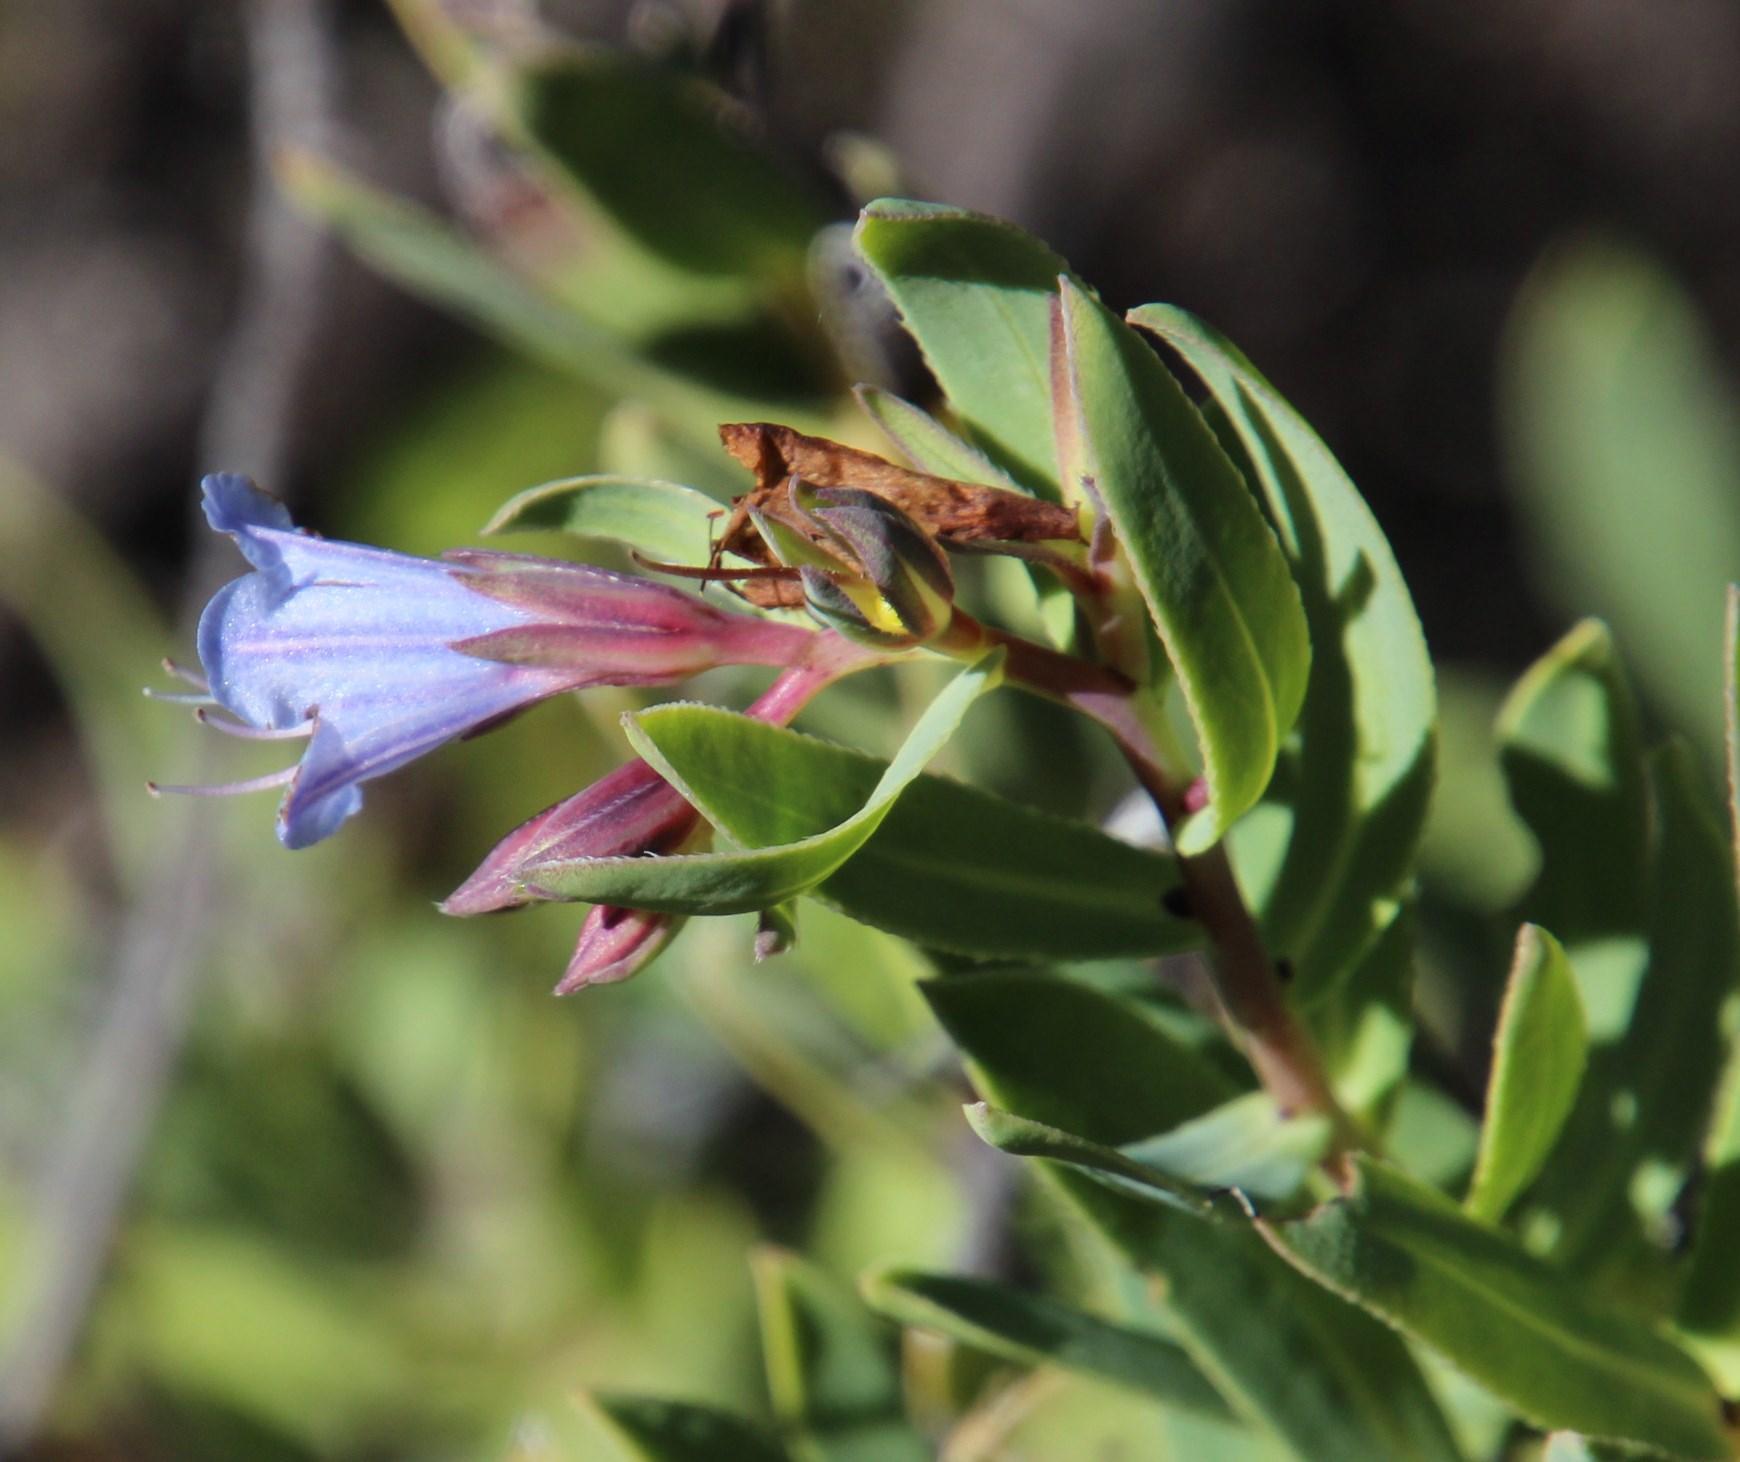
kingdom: Plantae
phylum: Tracheophyta
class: Magnoliopsida
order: Boraginales
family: Boraginaceae
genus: Lobostemon
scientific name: Lobostemon glaucophyllus
